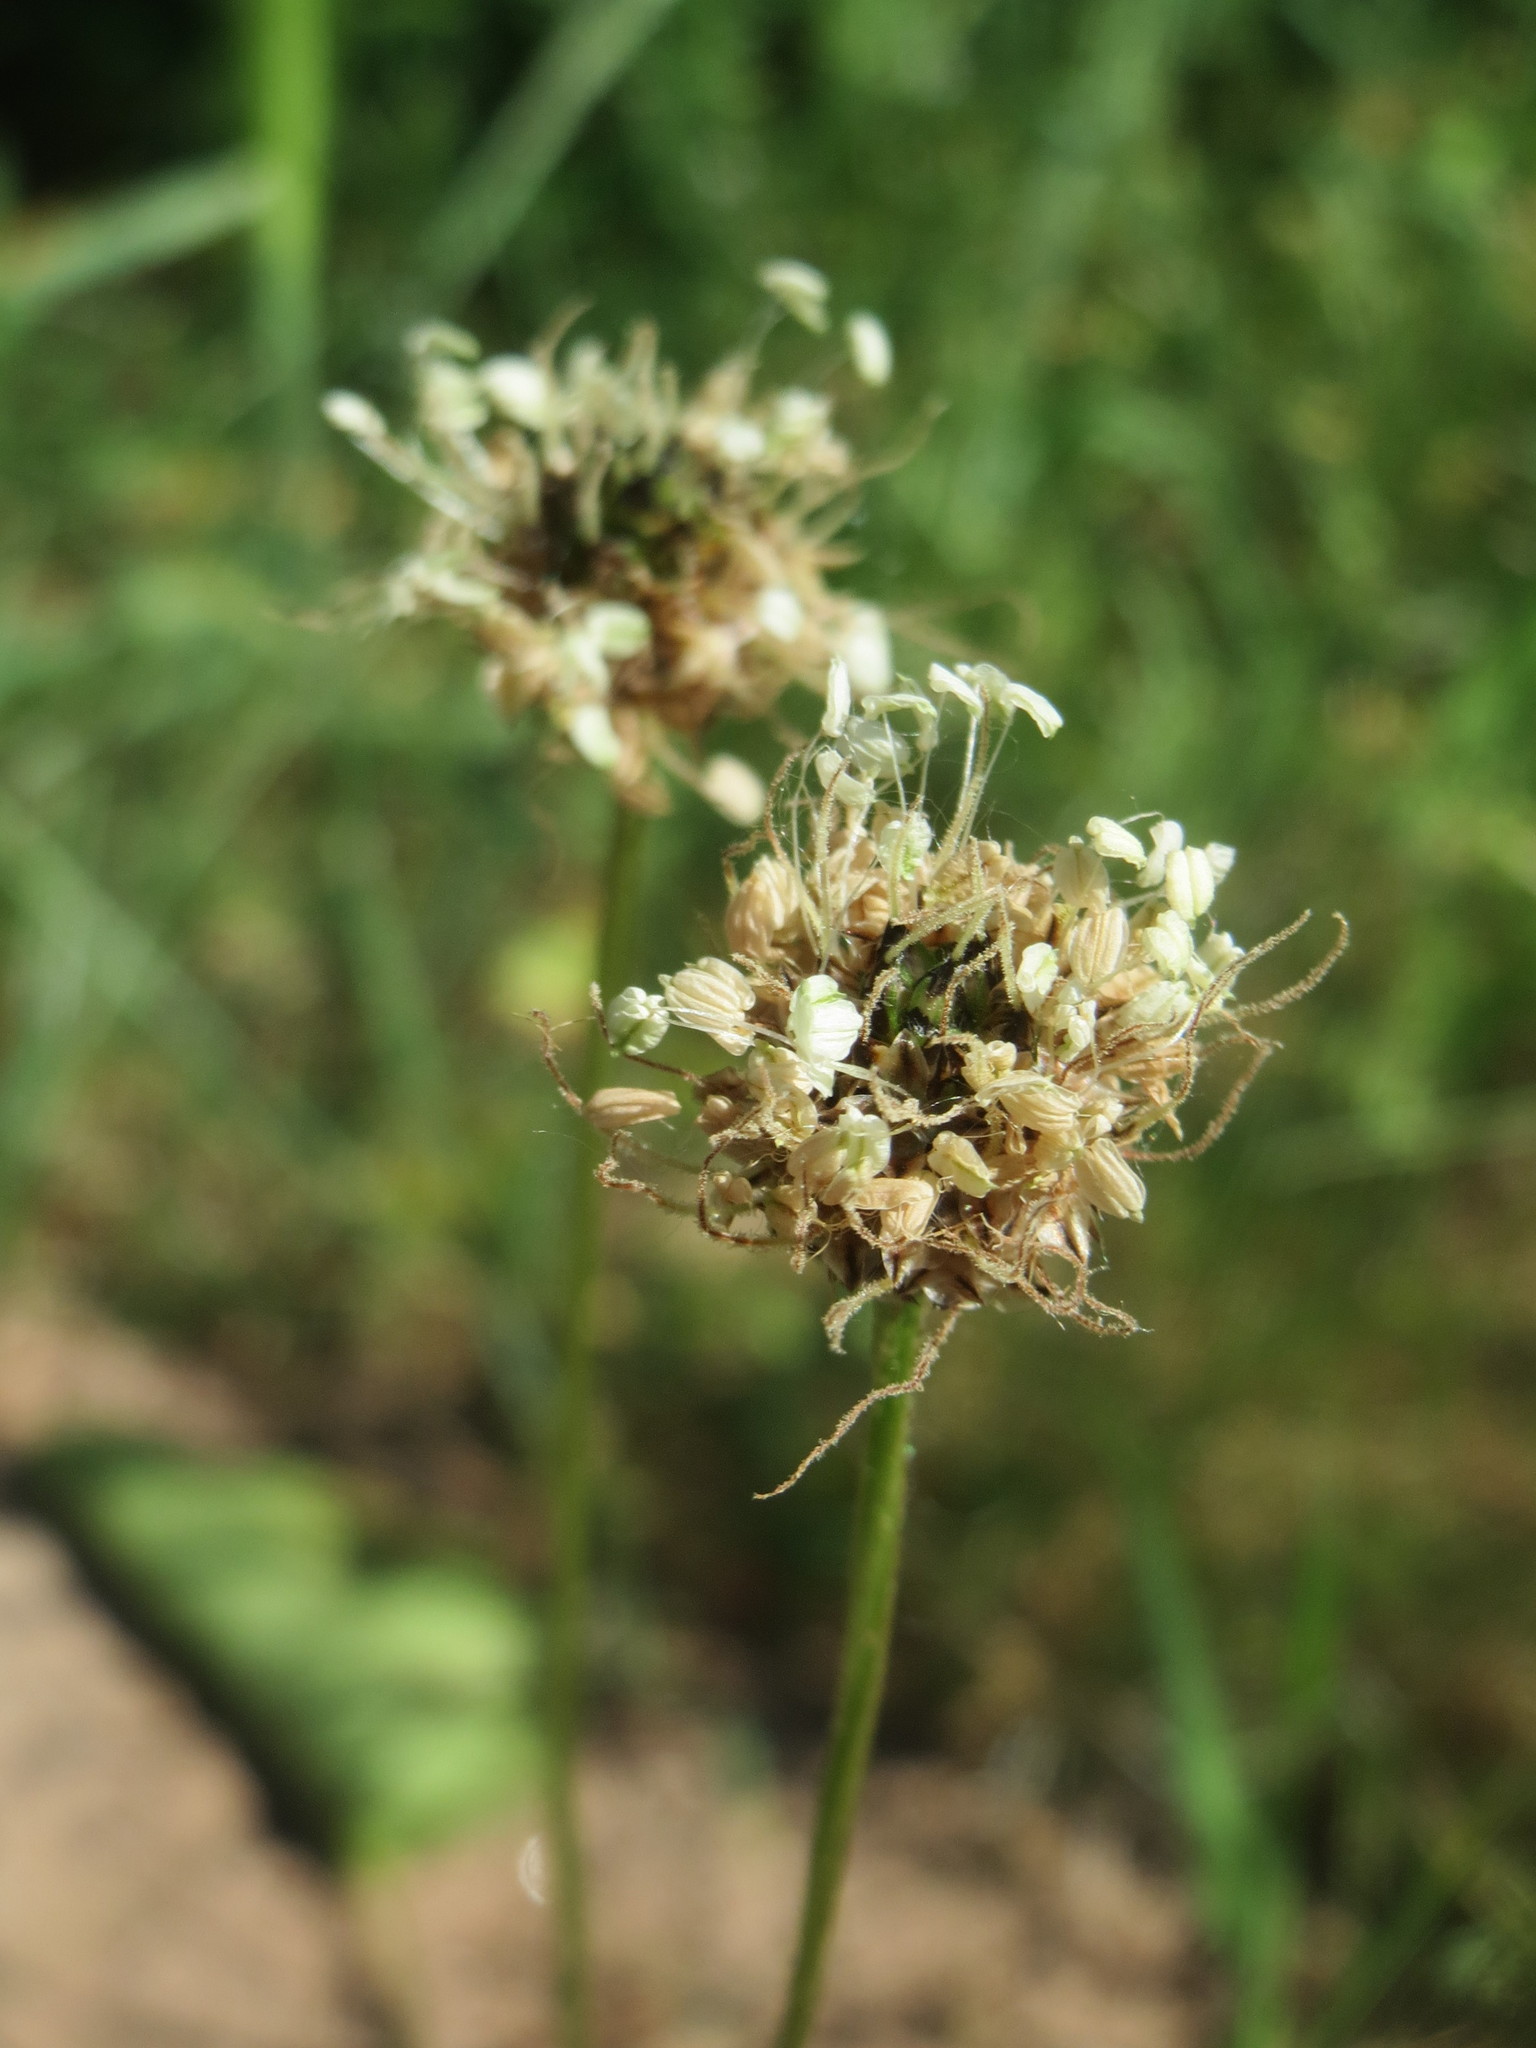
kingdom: Plantae
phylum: Tracheophyta
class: Magnoliopsida
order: Lamiales
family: Plantaginaceae
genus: Plantago
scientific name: Plantago lanceolata
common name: Ribwort plantain
